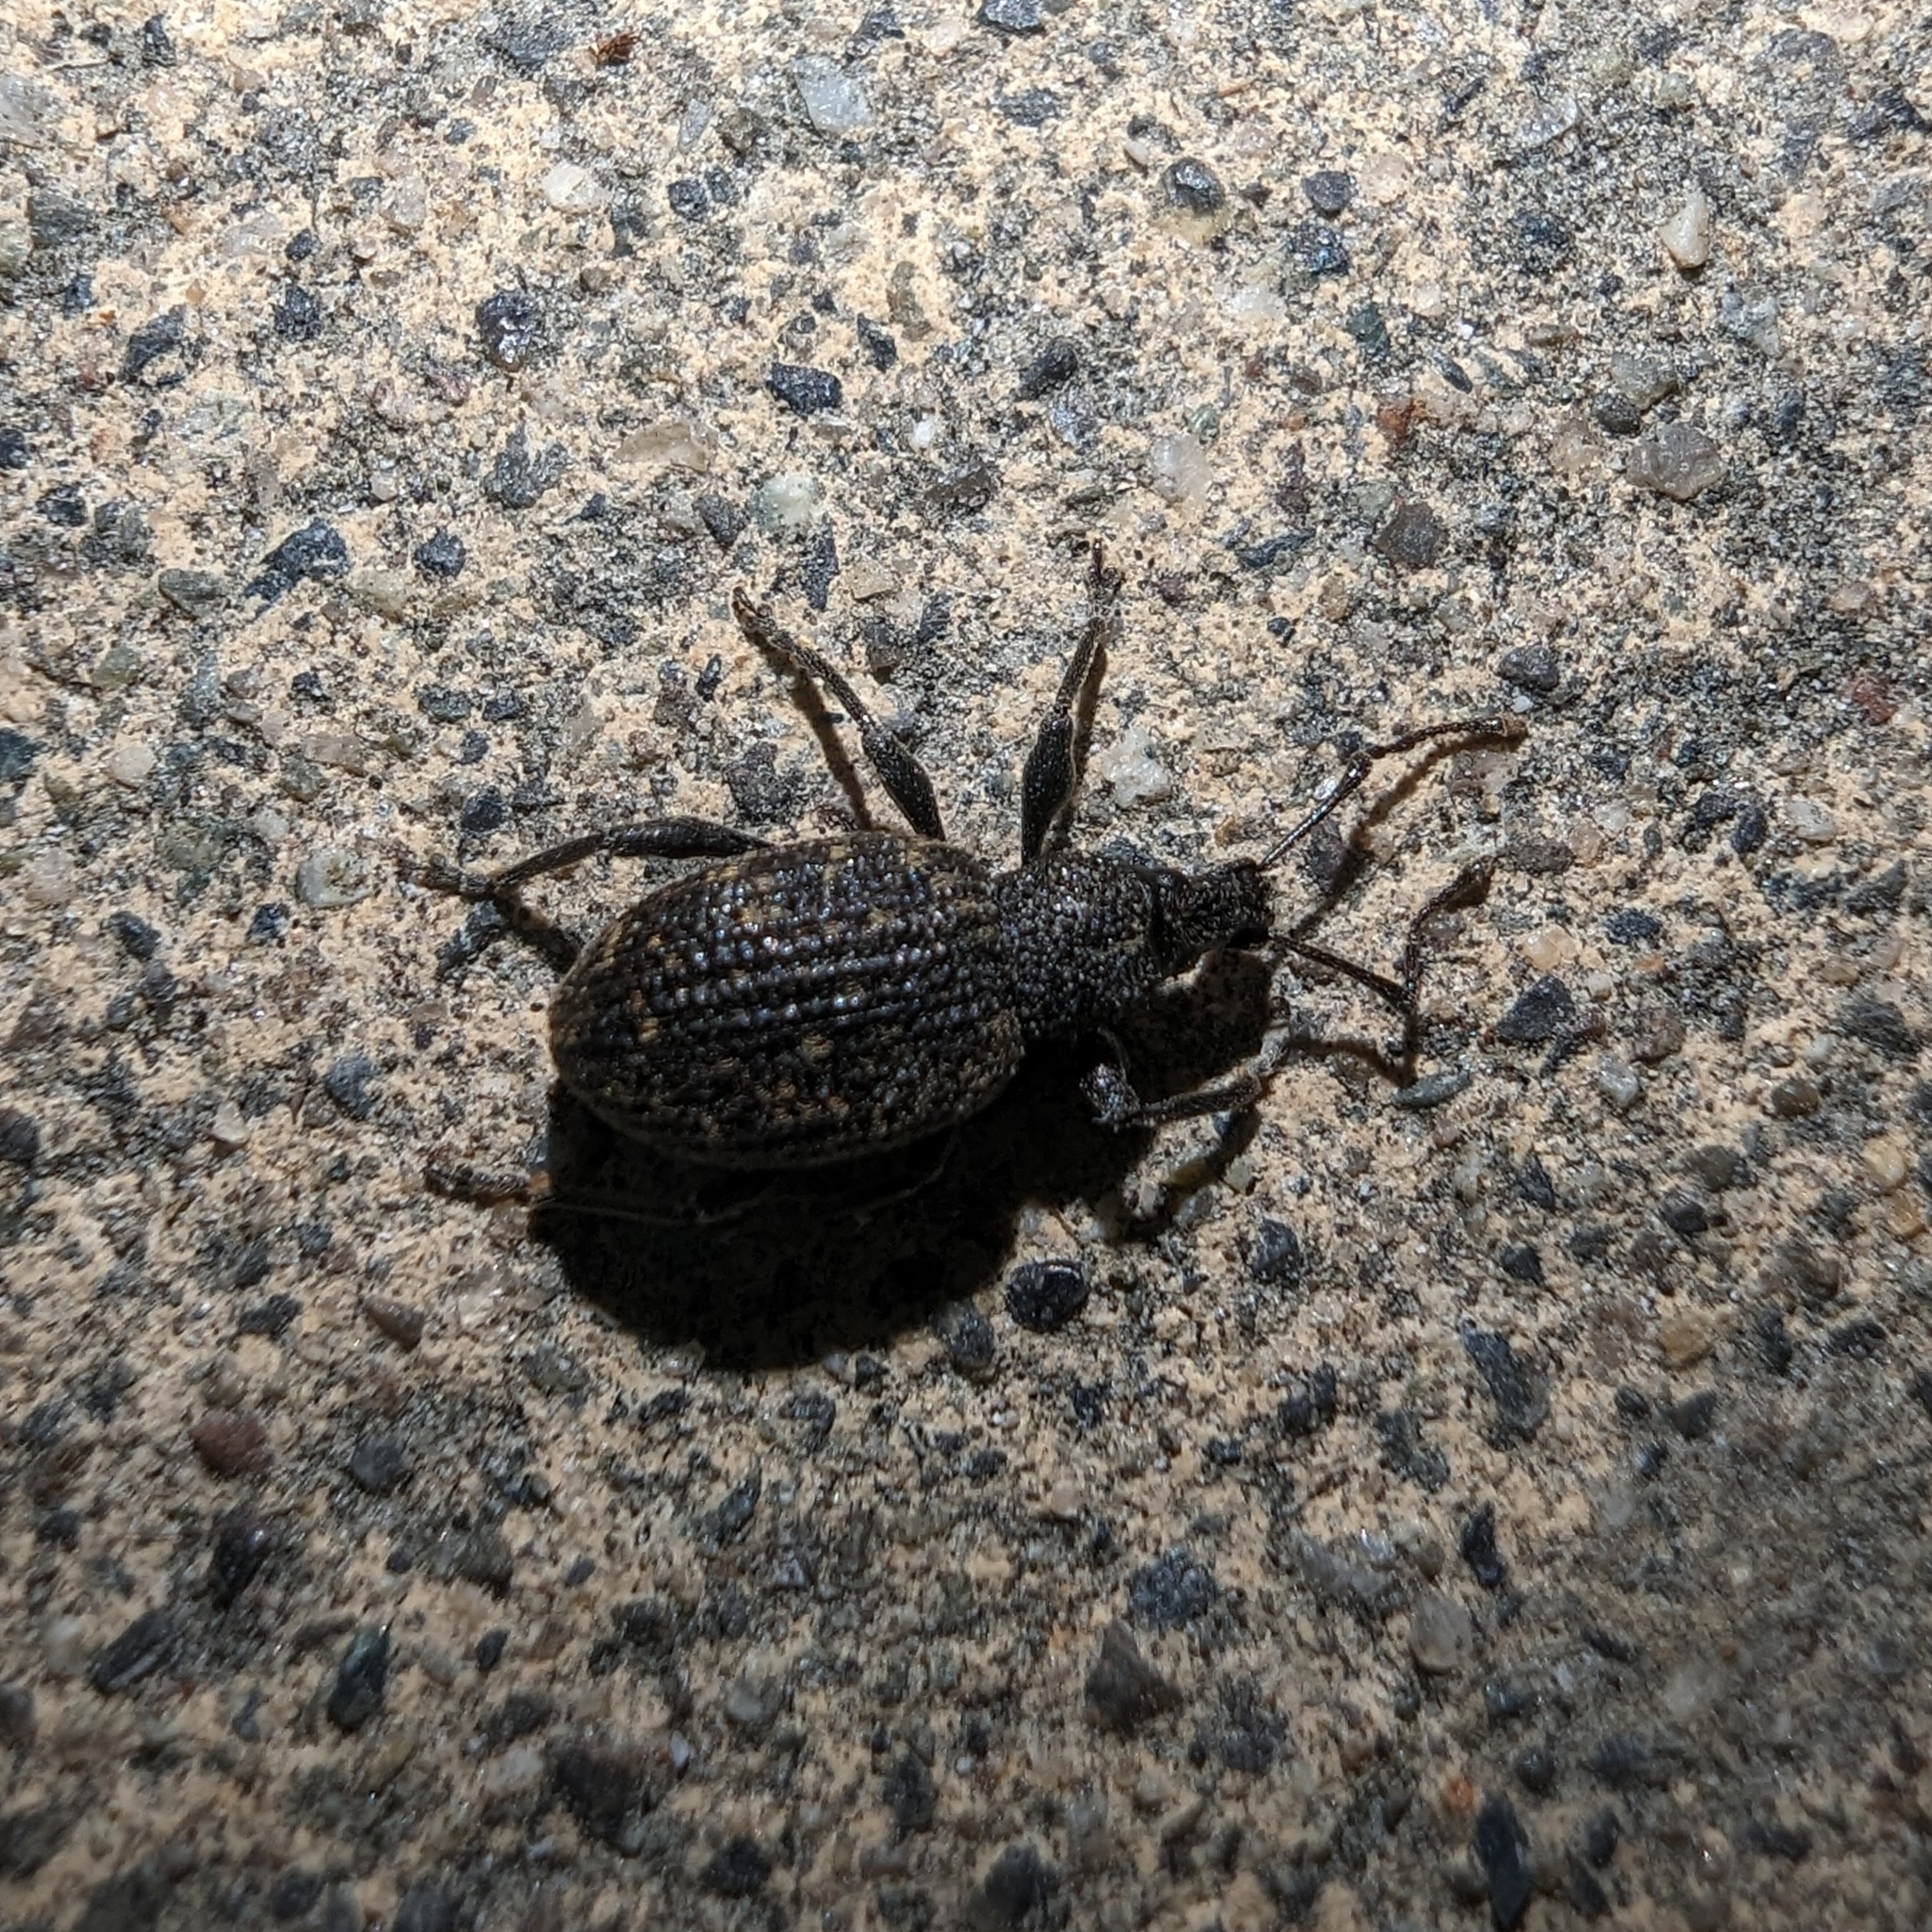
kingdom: Animalia
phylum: Arthropoda
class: Insecta
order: Coleoptera
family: Curculionidae
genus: Otiorhynchus
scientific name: Otiorhynchus sulcatus
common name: Black vine weevil
